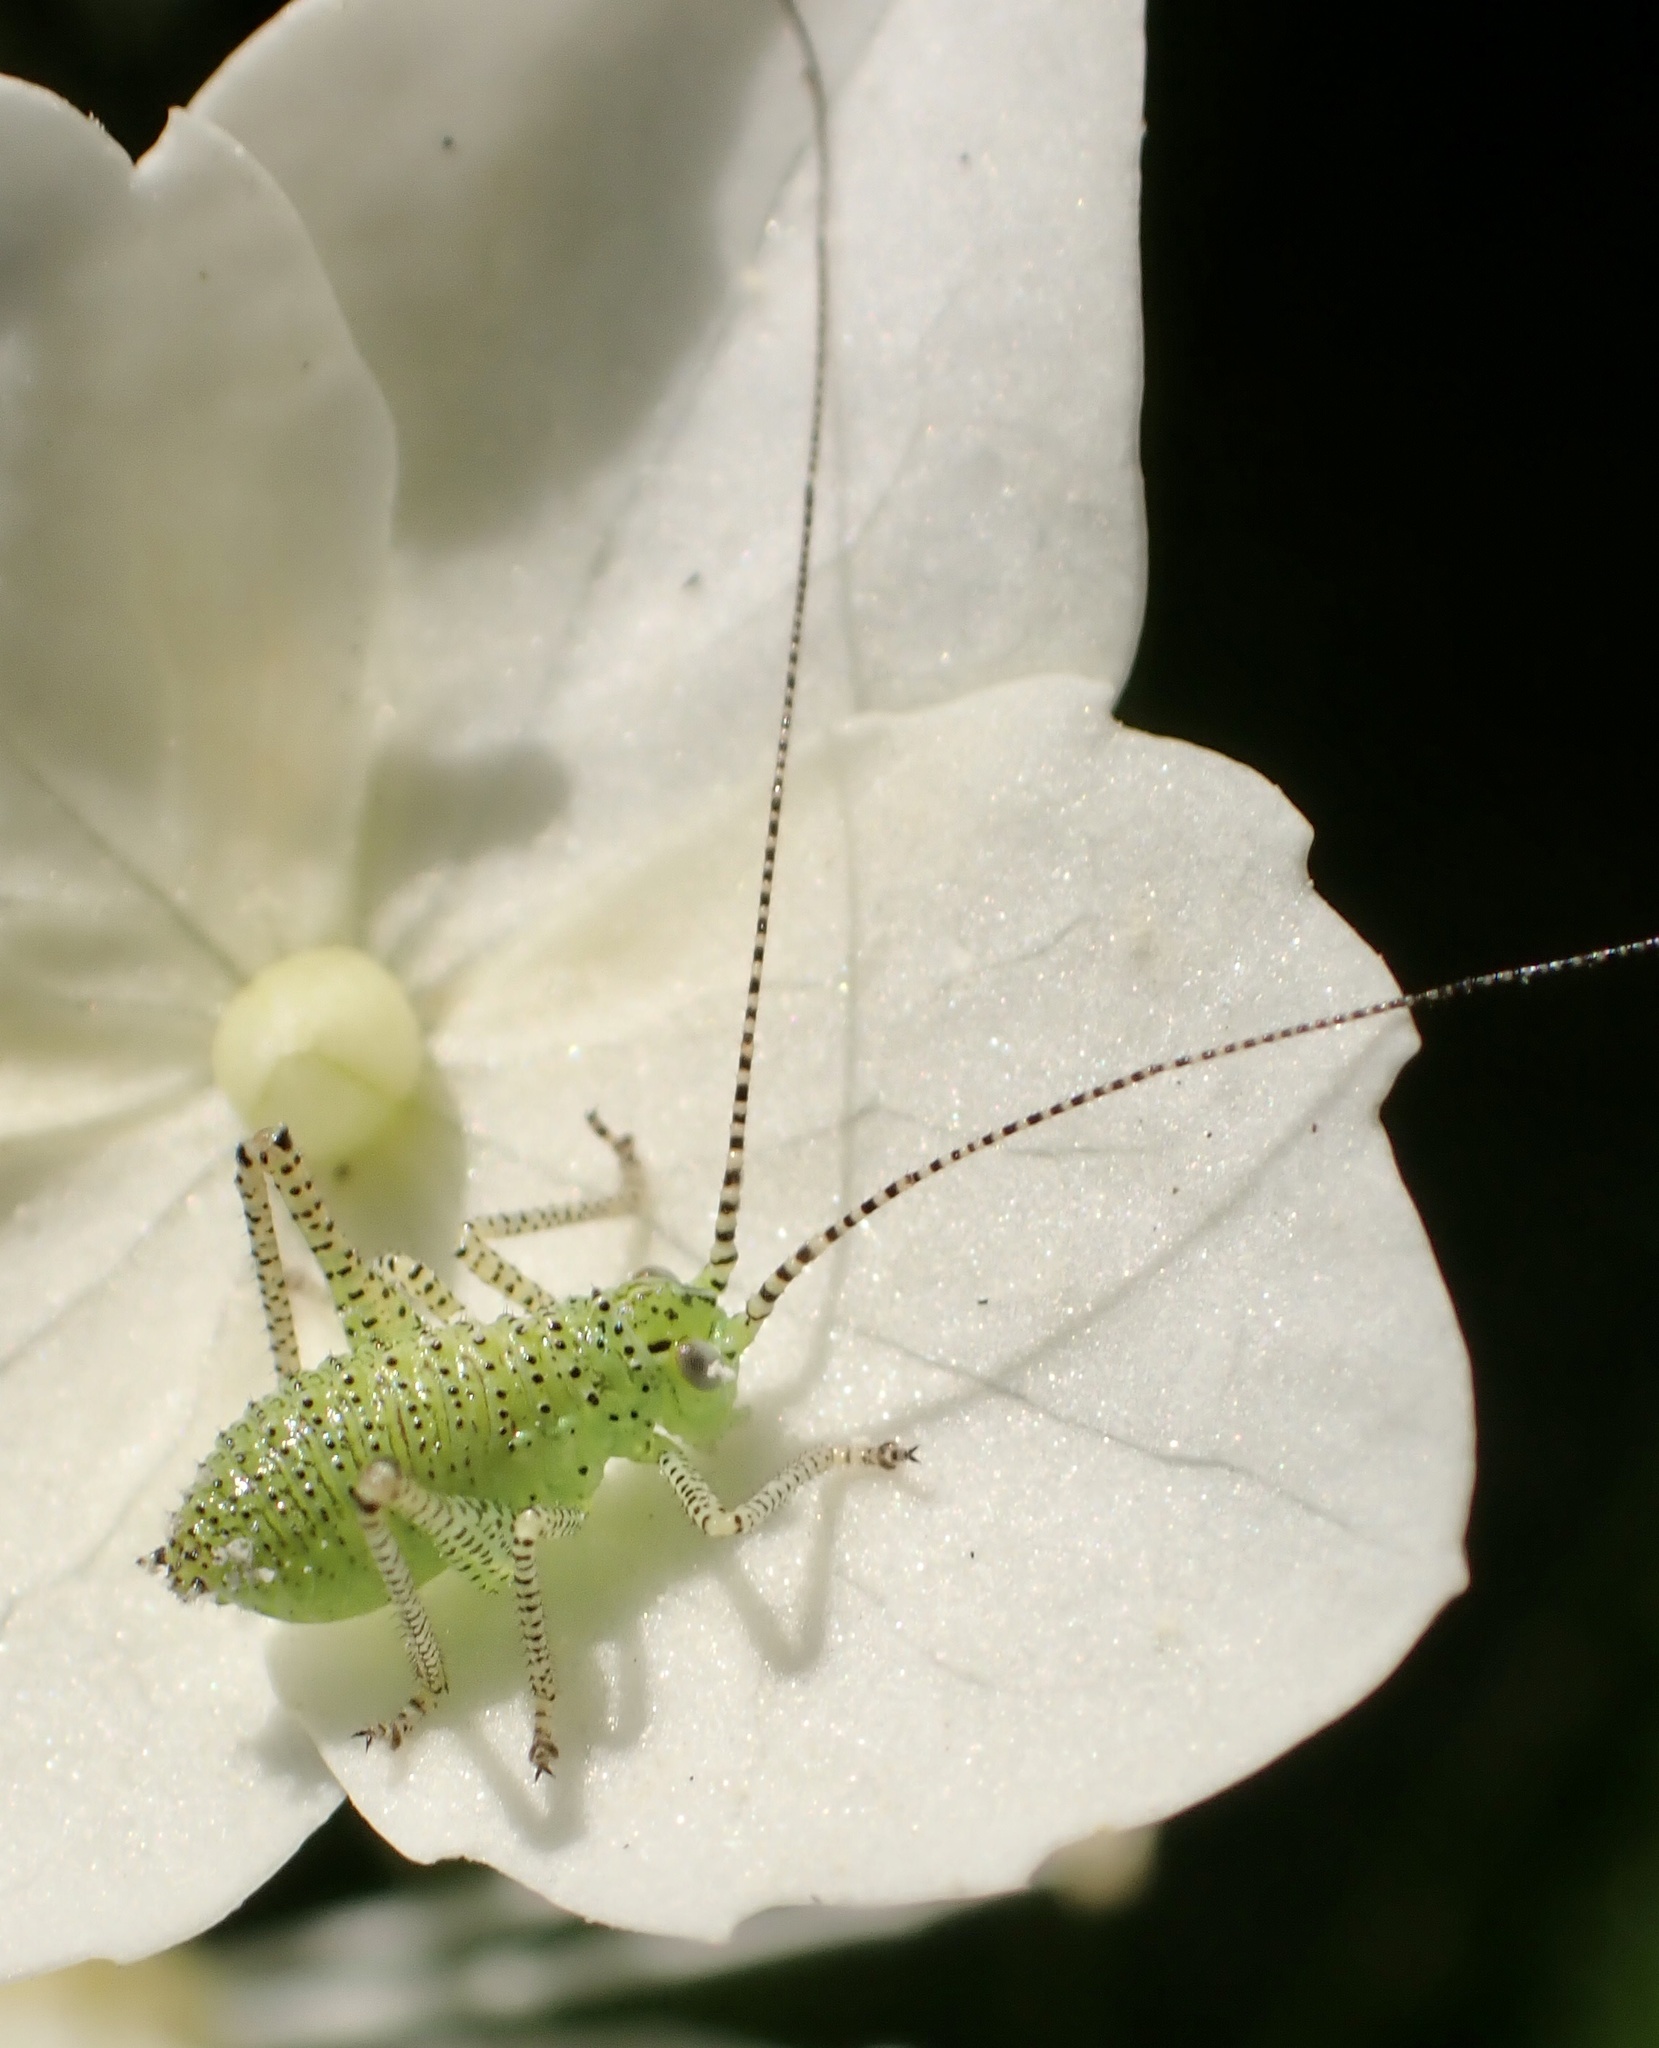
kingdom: Animalia
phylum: Arthropoda
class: Insecta
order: Orthoptera
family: Tettigoniidae
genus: Leptophyes
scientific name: Leptophyes punctatissima
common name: Speckled bush-cricket
